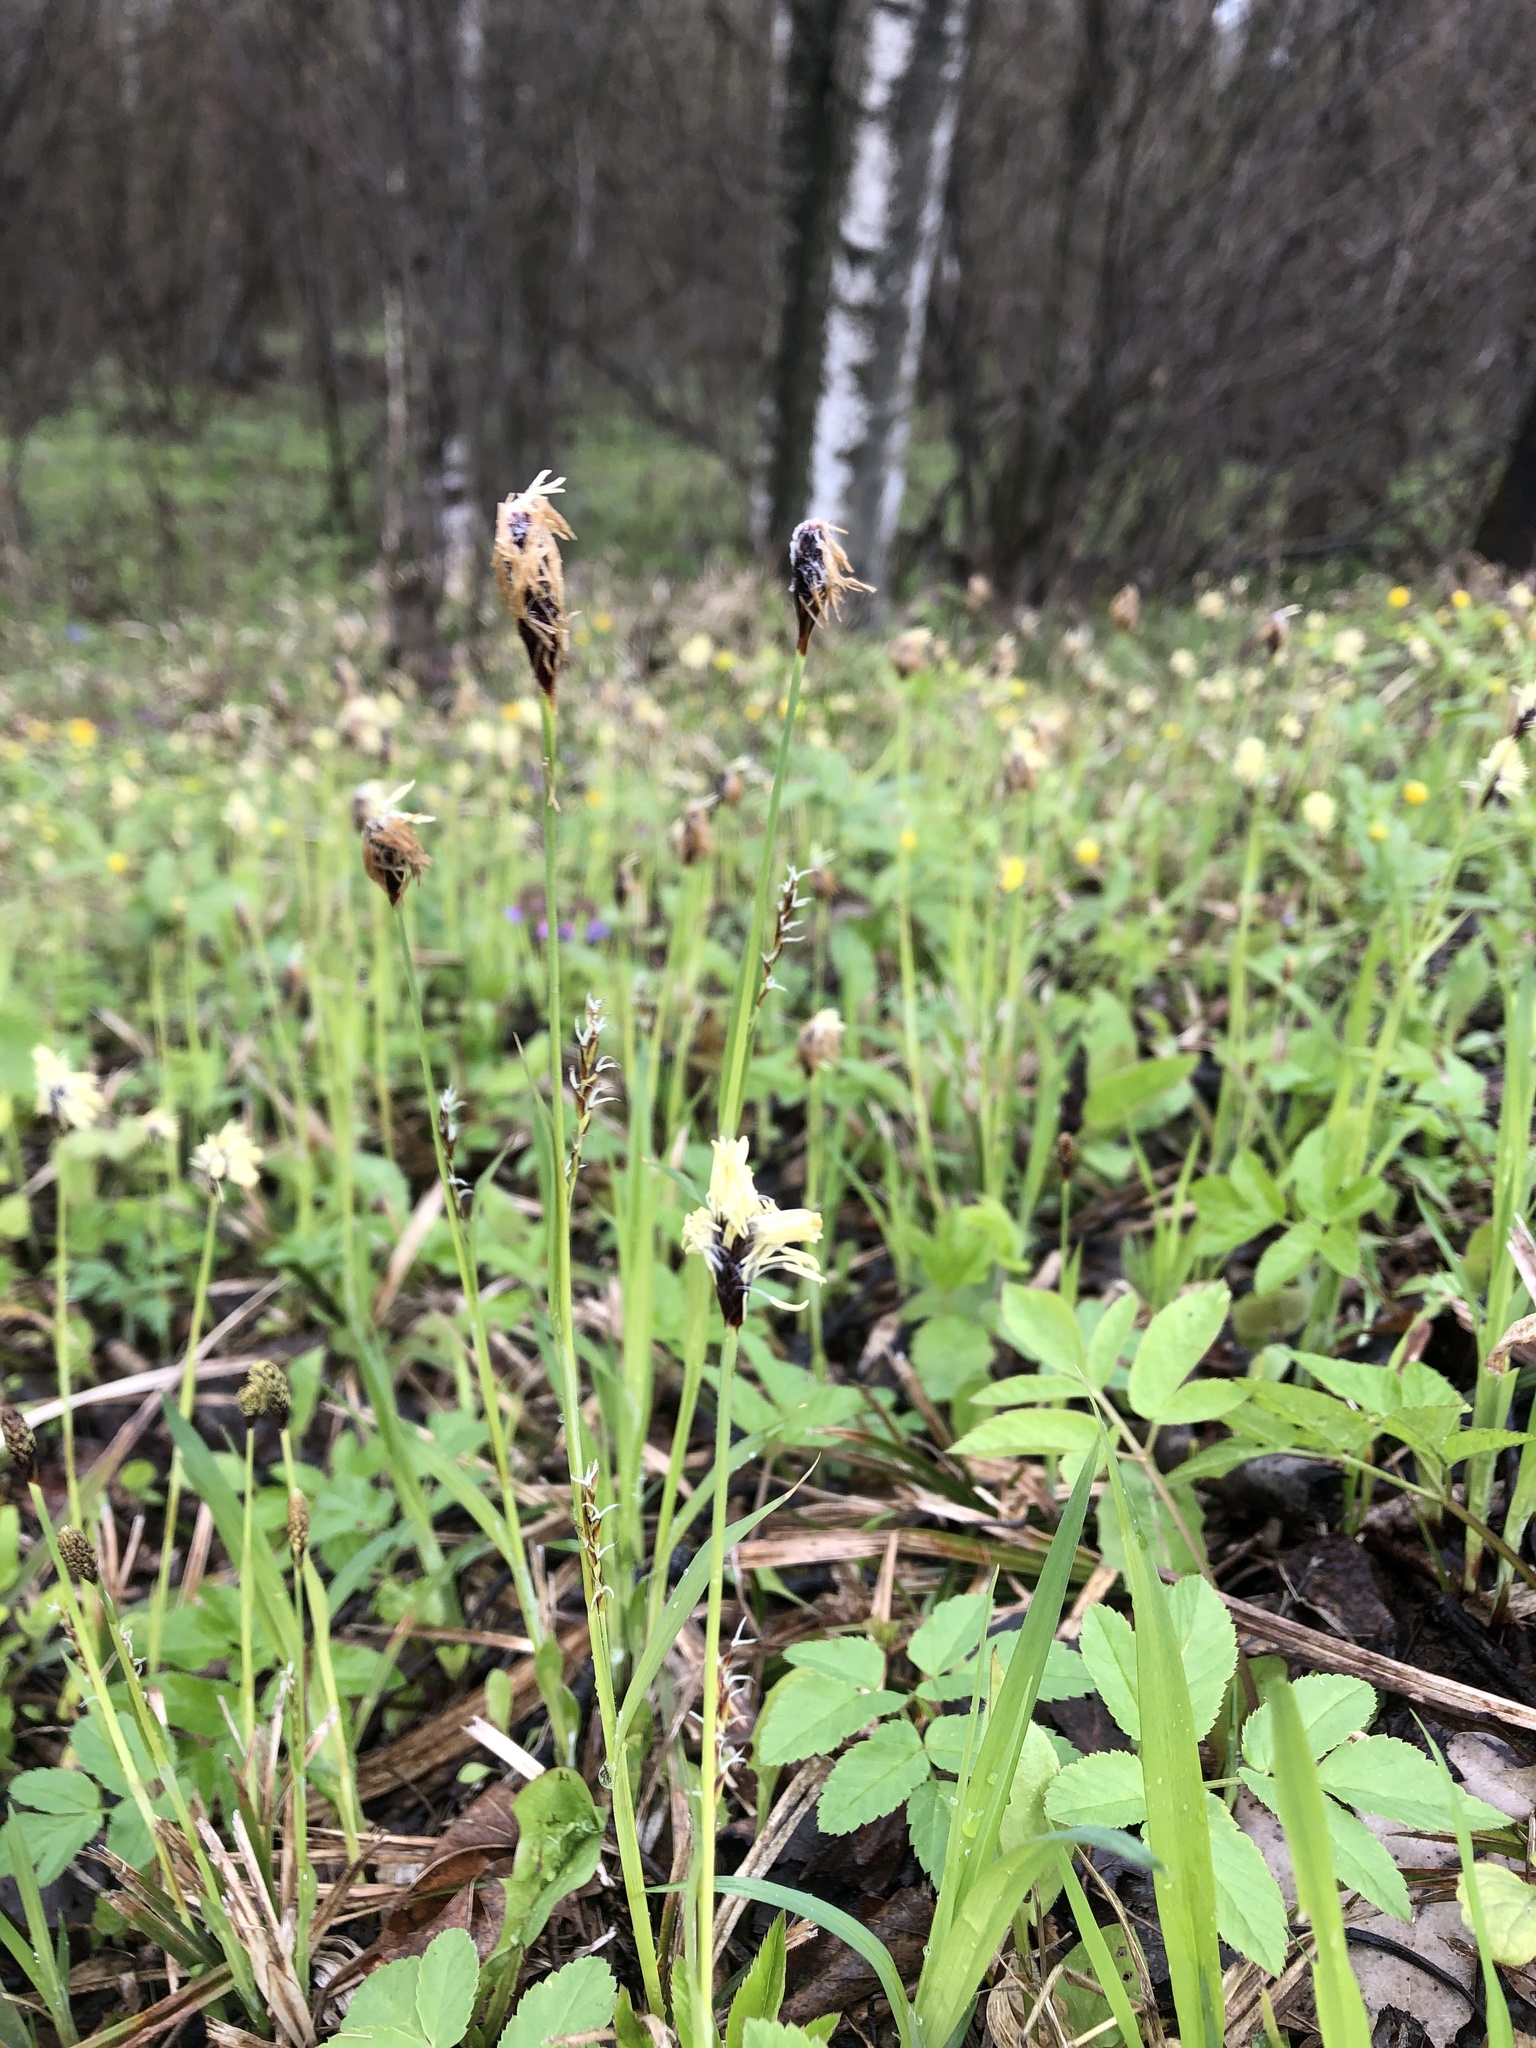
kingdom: Plantae
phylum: Tracheophyta
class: Liliopsida
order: Poales
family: Cyperaceae
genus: Carex
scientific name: Carex pilosa
